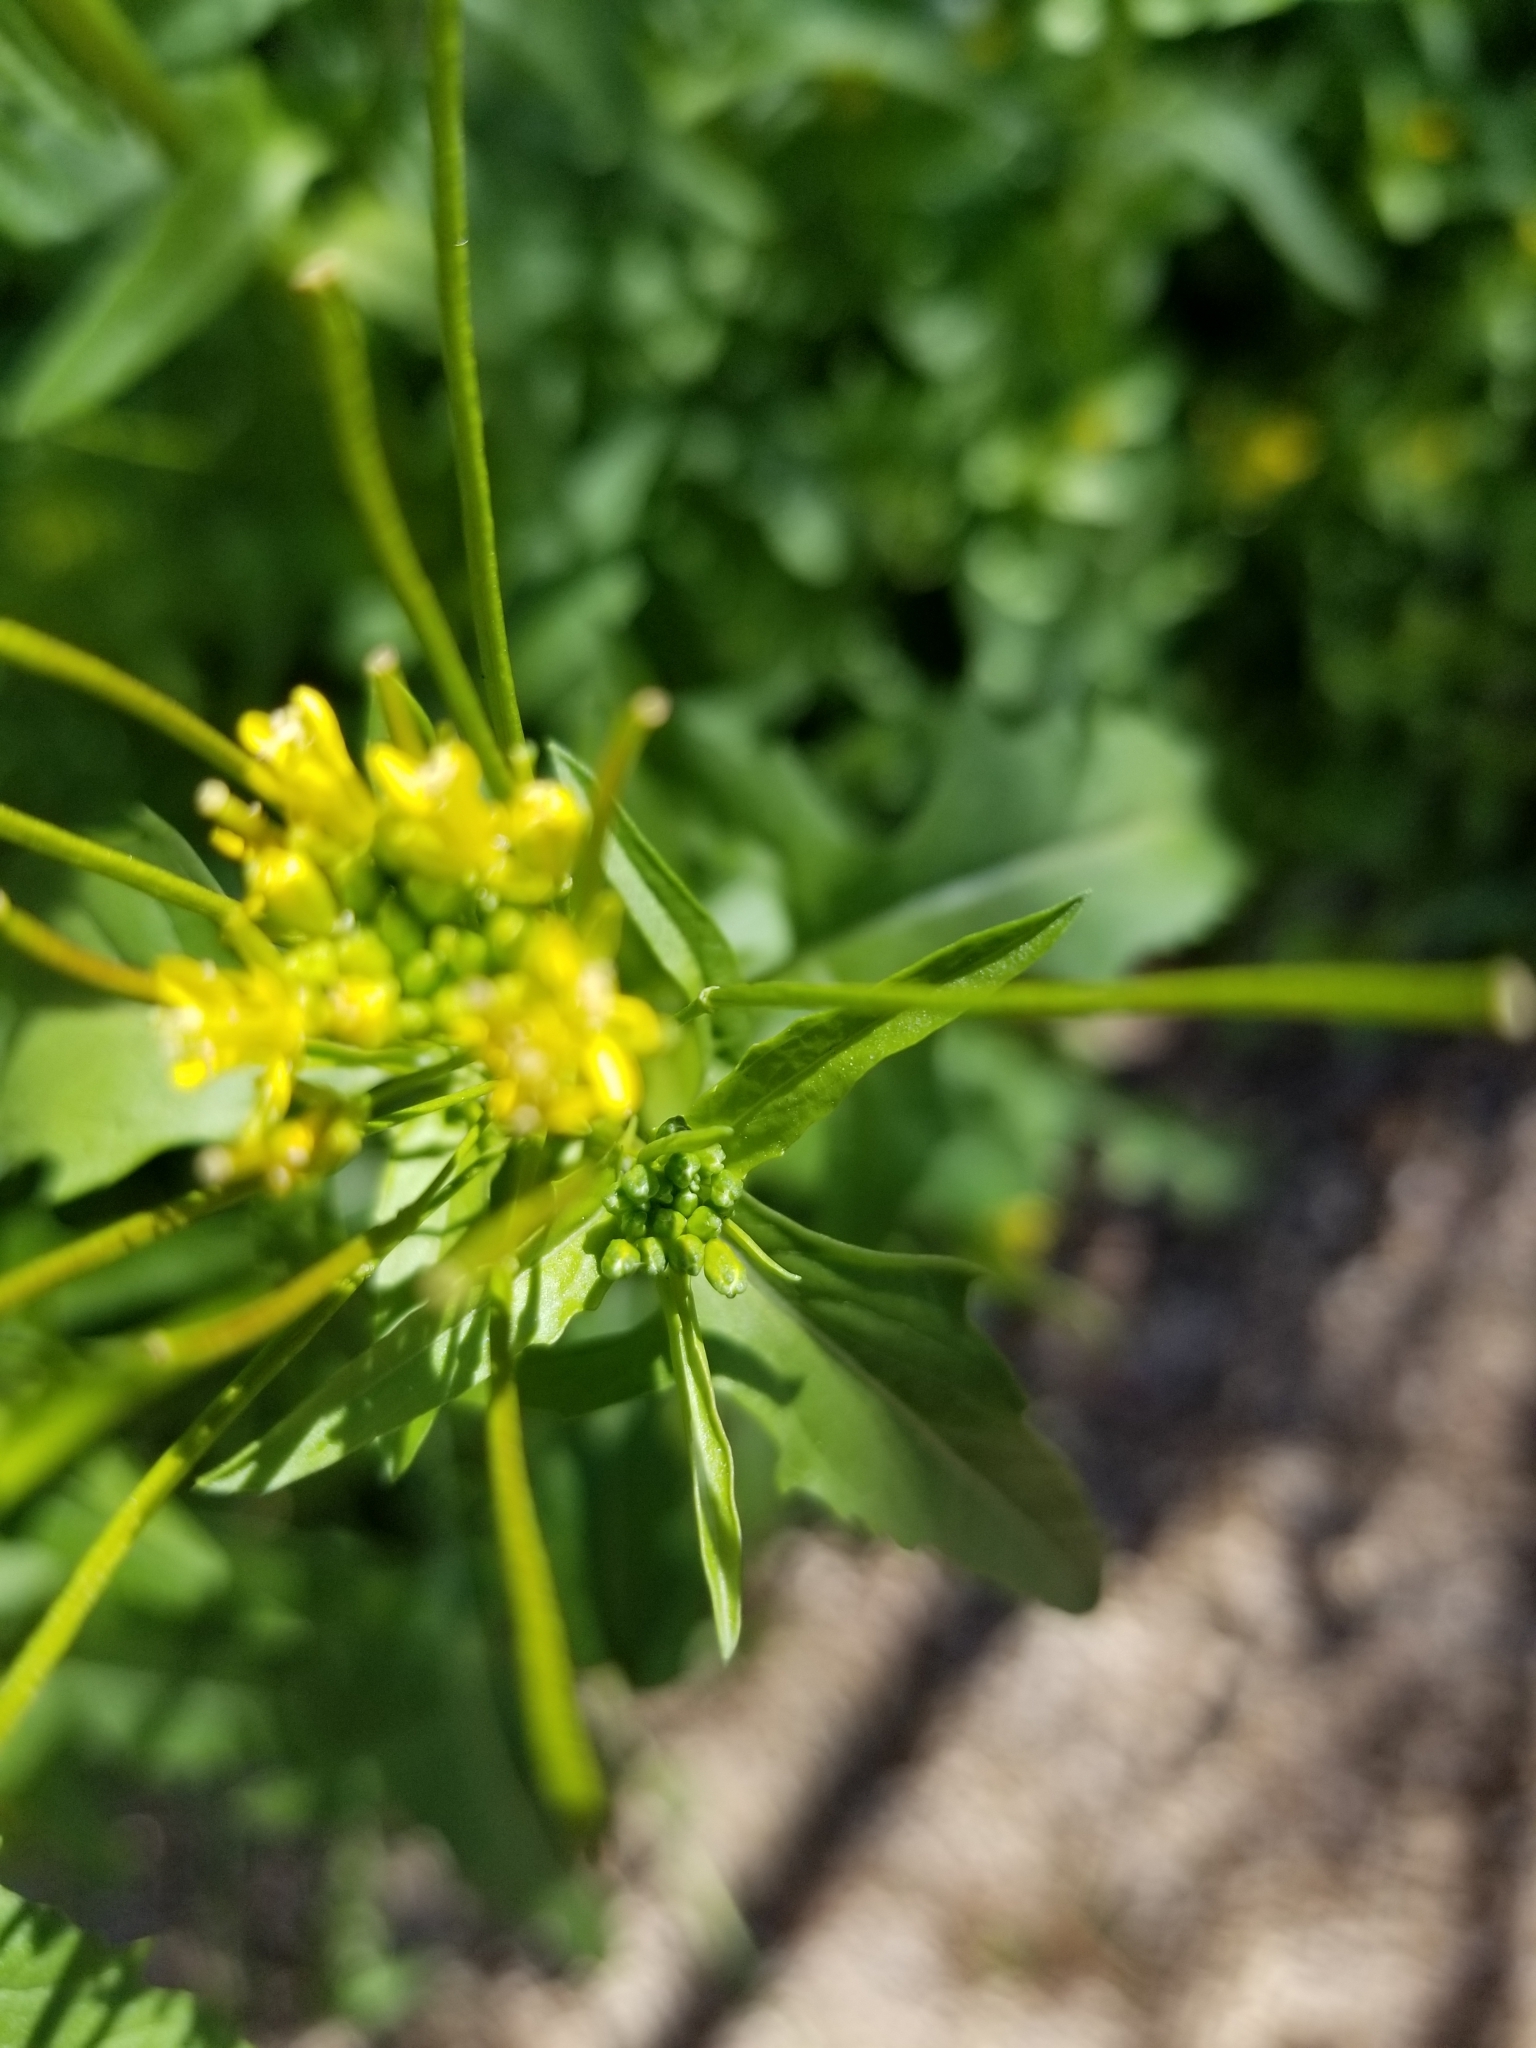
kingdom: Plantae
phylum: Tracheophyta
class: Magnoliopsida
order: Brassicales
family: Brassicaceae
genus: Sisymbrium
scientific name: Sisymbrium irio
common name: London rocket
